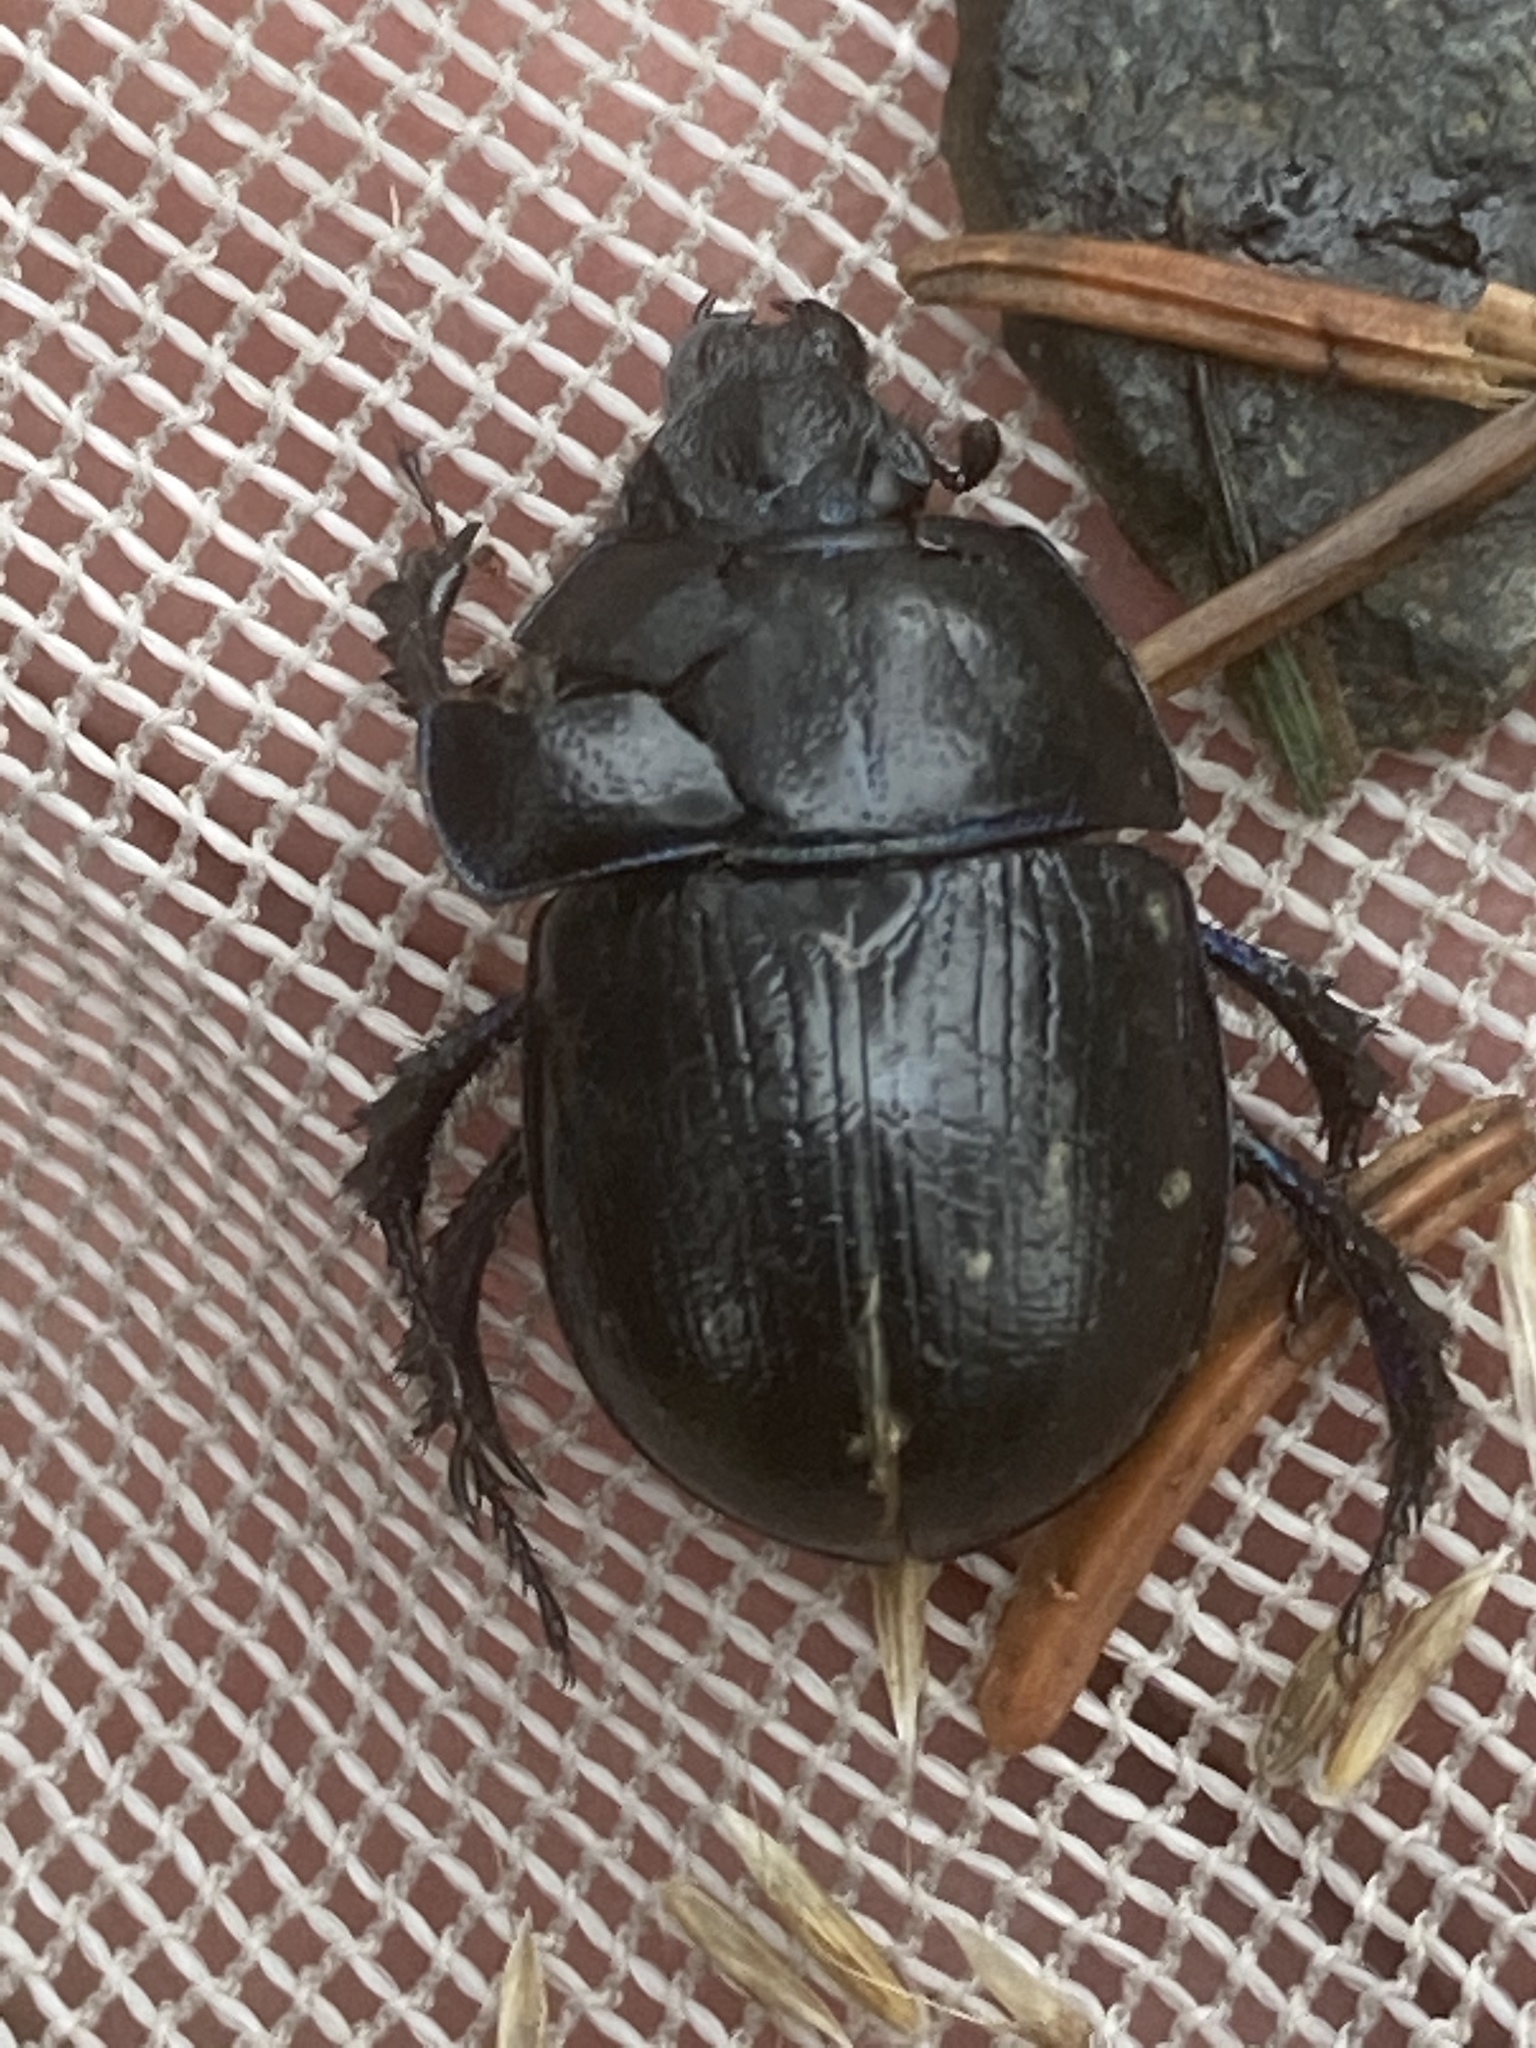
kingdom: Animalia
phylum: Arthropoda
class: Insecta
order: Coleoptera
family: Geotrupidae
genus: Anoplotrupes
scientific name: Anoplotrupes stercorosus
